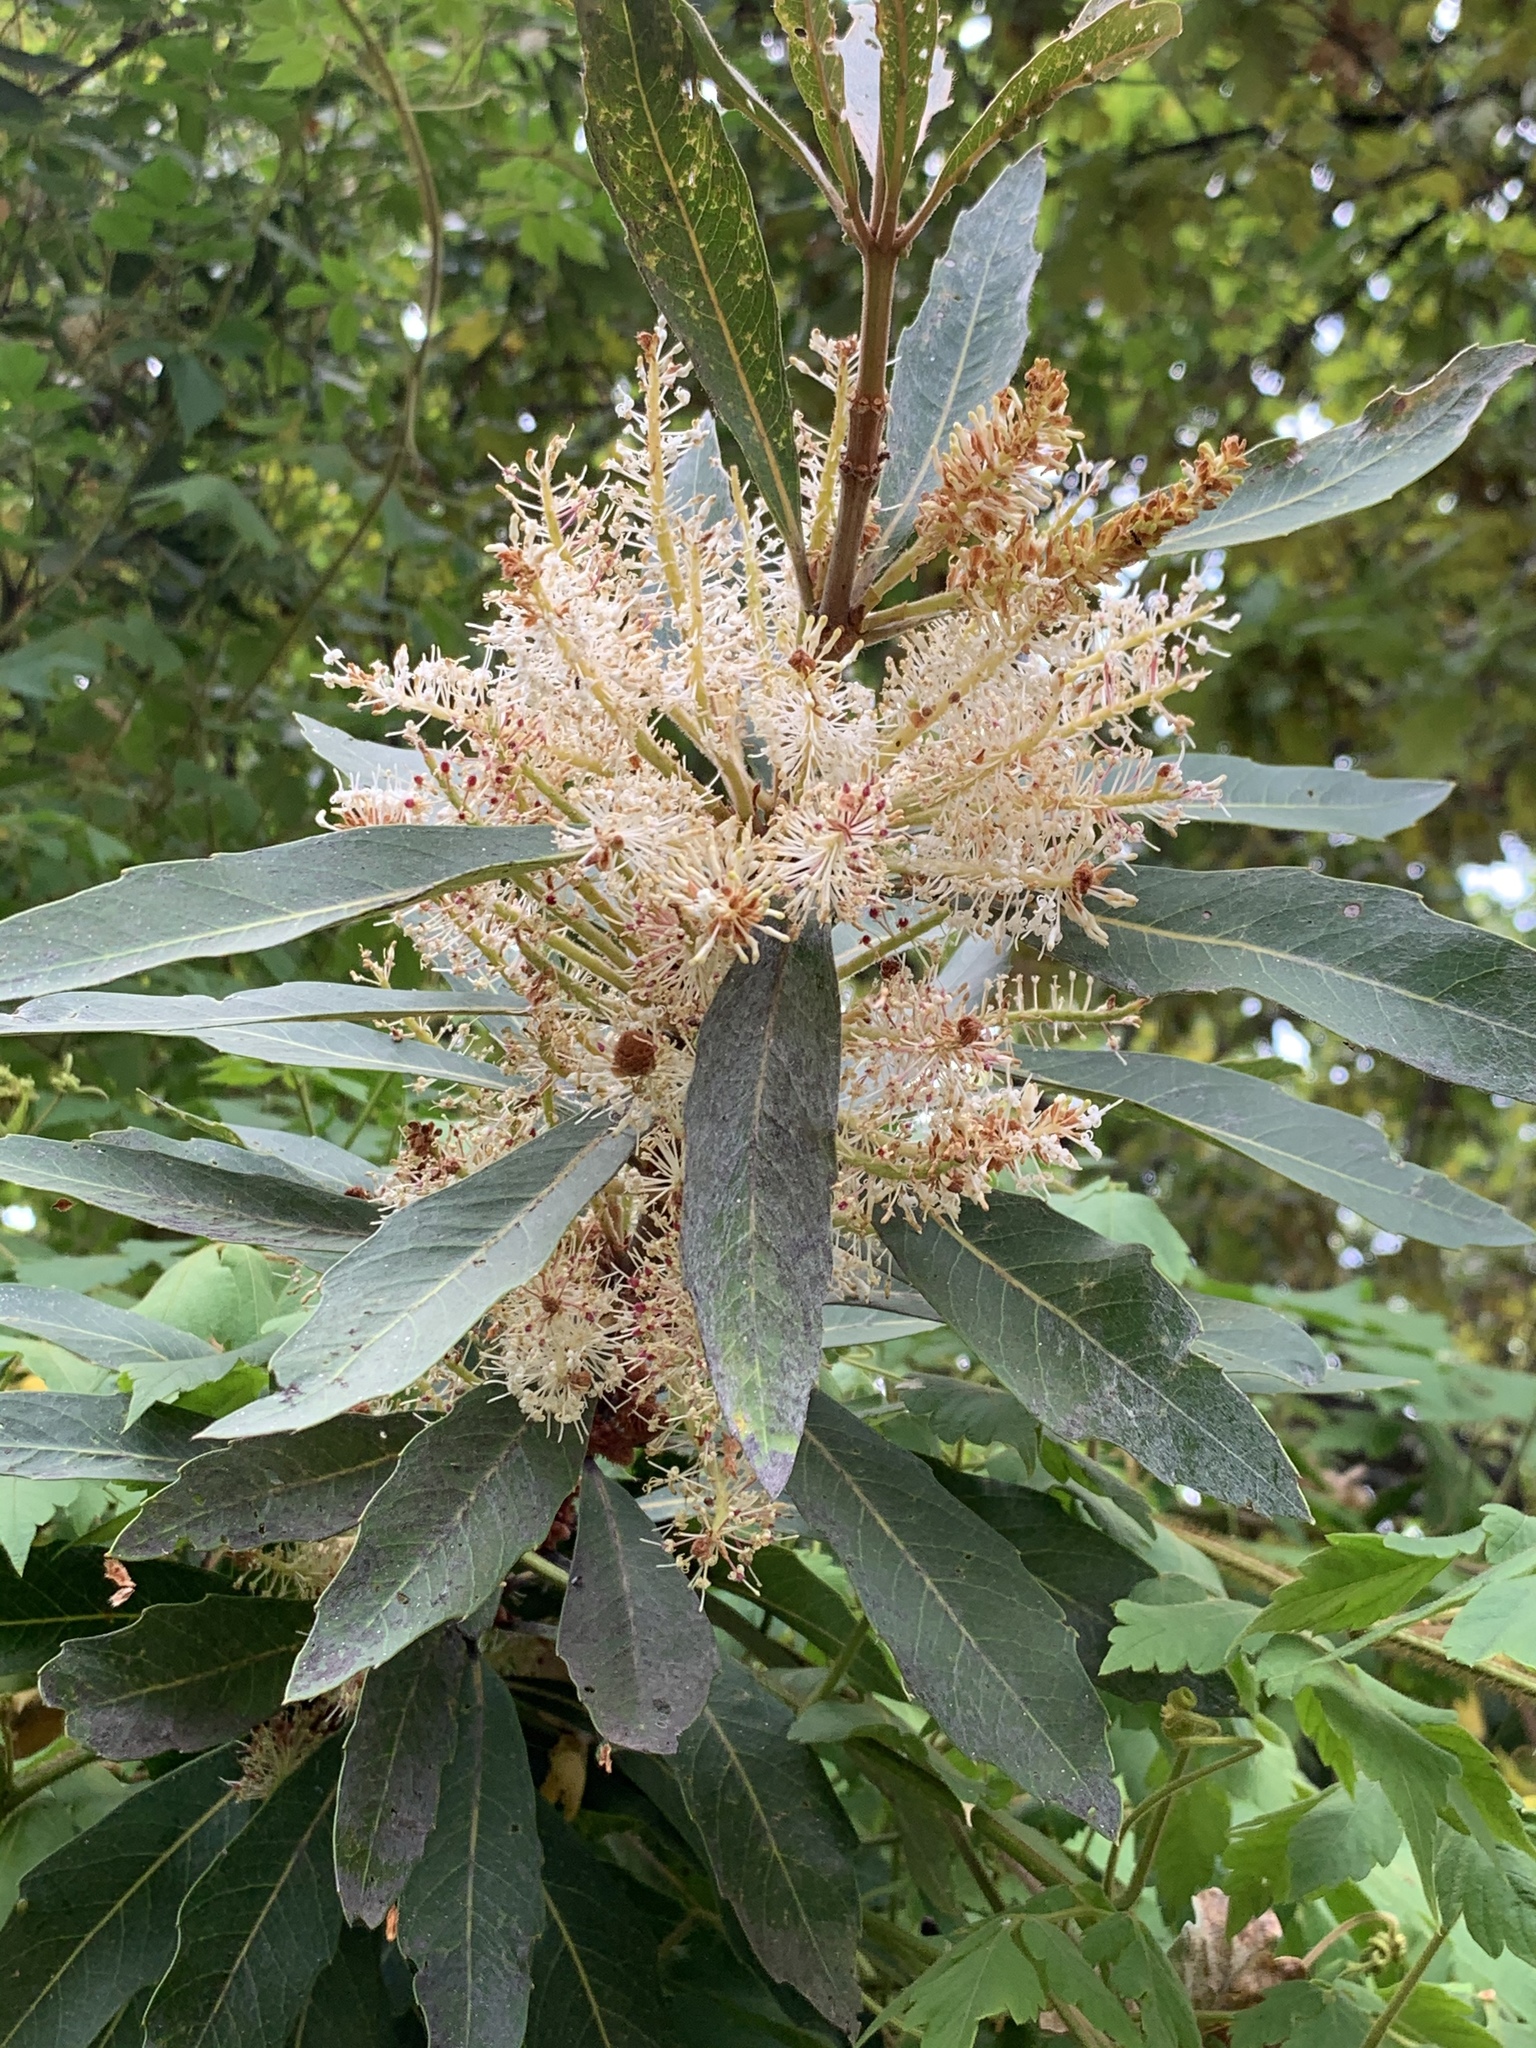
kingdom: Plantae
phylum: Tracheophyta
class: Magnoliopsida
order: Proteales
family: Proteaceae
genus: Brabejum
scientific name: Brabejum stellatifolium
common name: Wild almond
